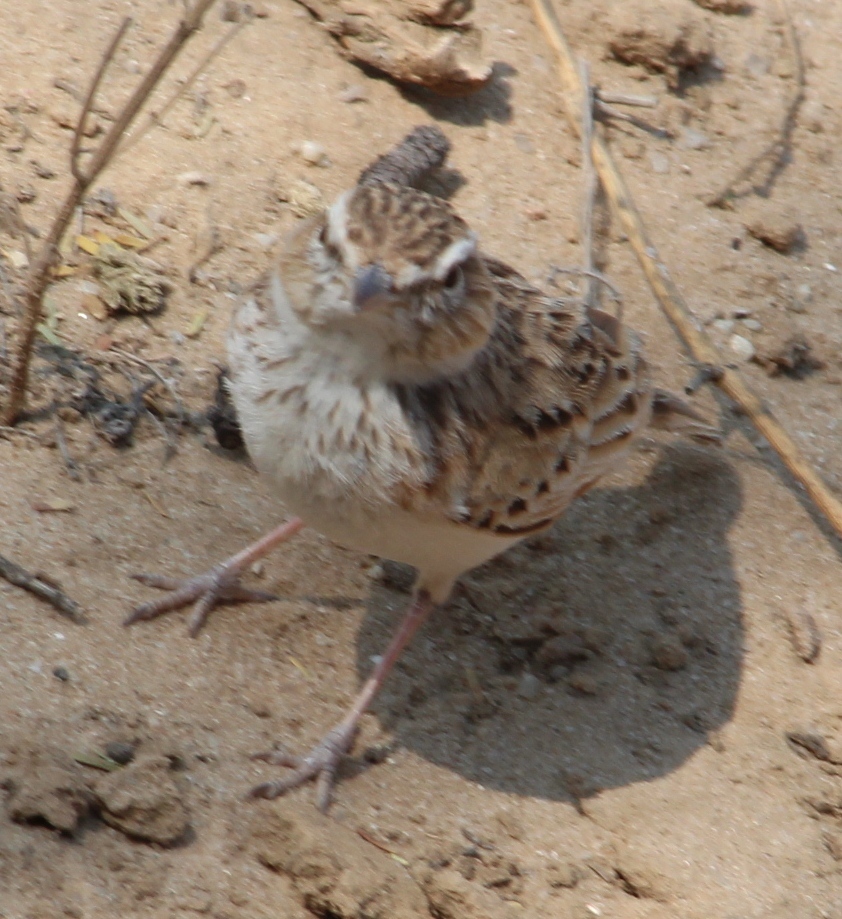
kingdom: Animalia
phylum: Chordata
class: Aves
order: Passeriformes
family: Alaudidae
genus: Calendulauda
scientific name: Calendulauda africanoides
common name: Fawn-colored lark
